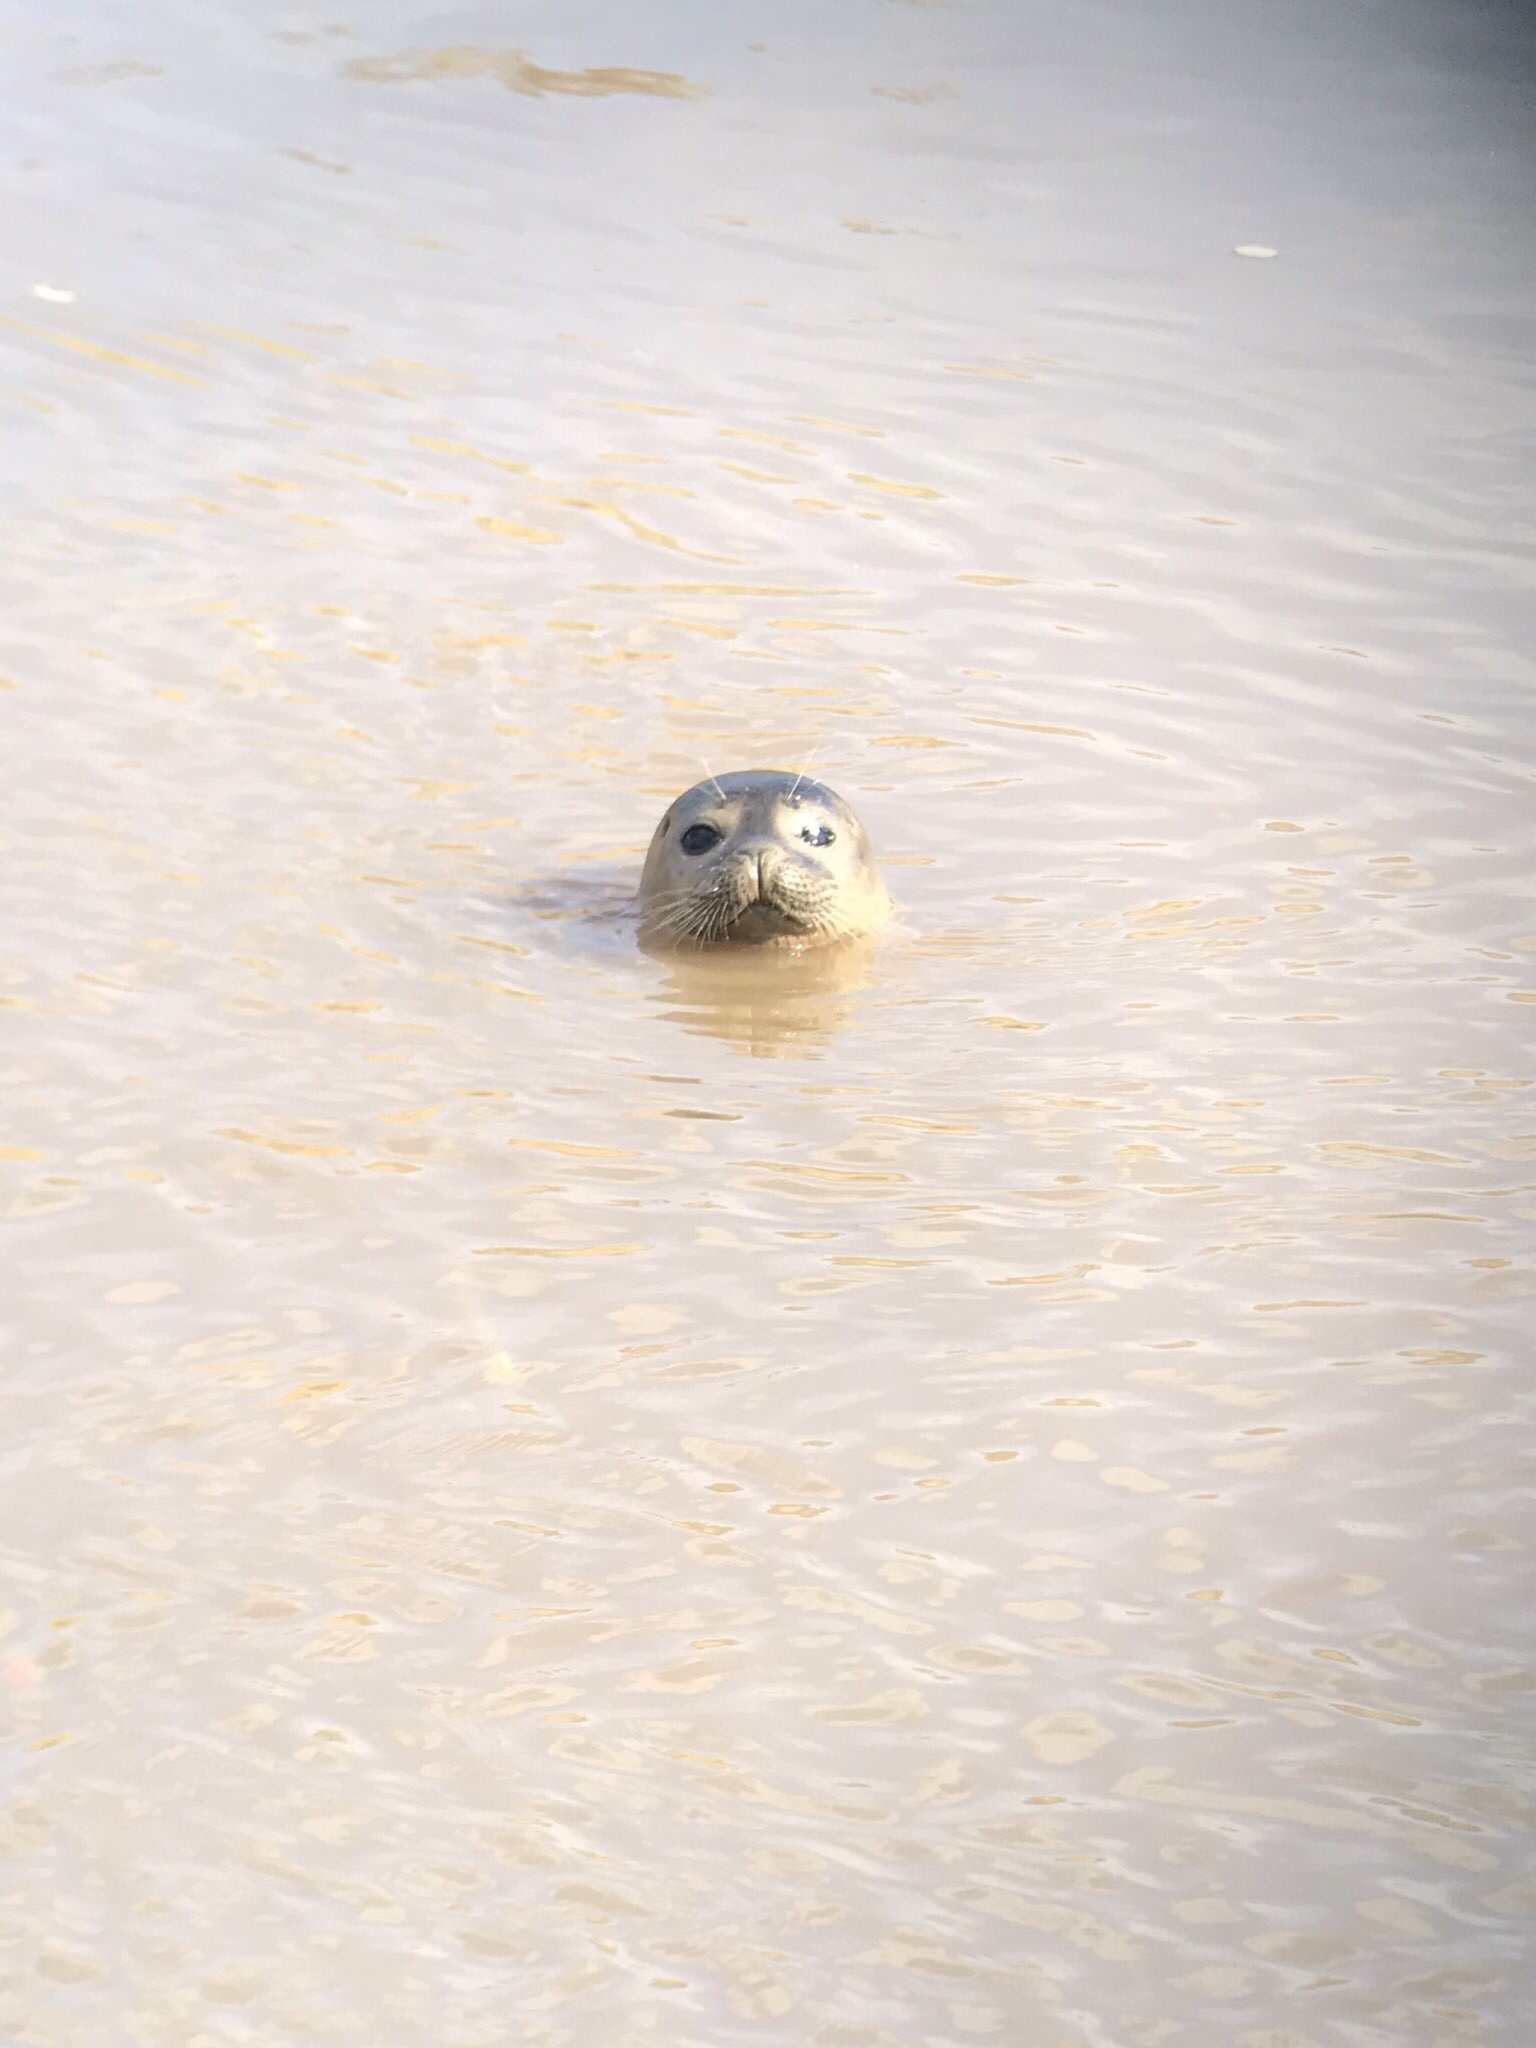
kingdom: Animalia
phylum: Chordata
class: Mammalia
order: Carnivora
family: Phocidae
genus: Phoca
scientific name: Phoca vitulina
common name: Harbor seal
